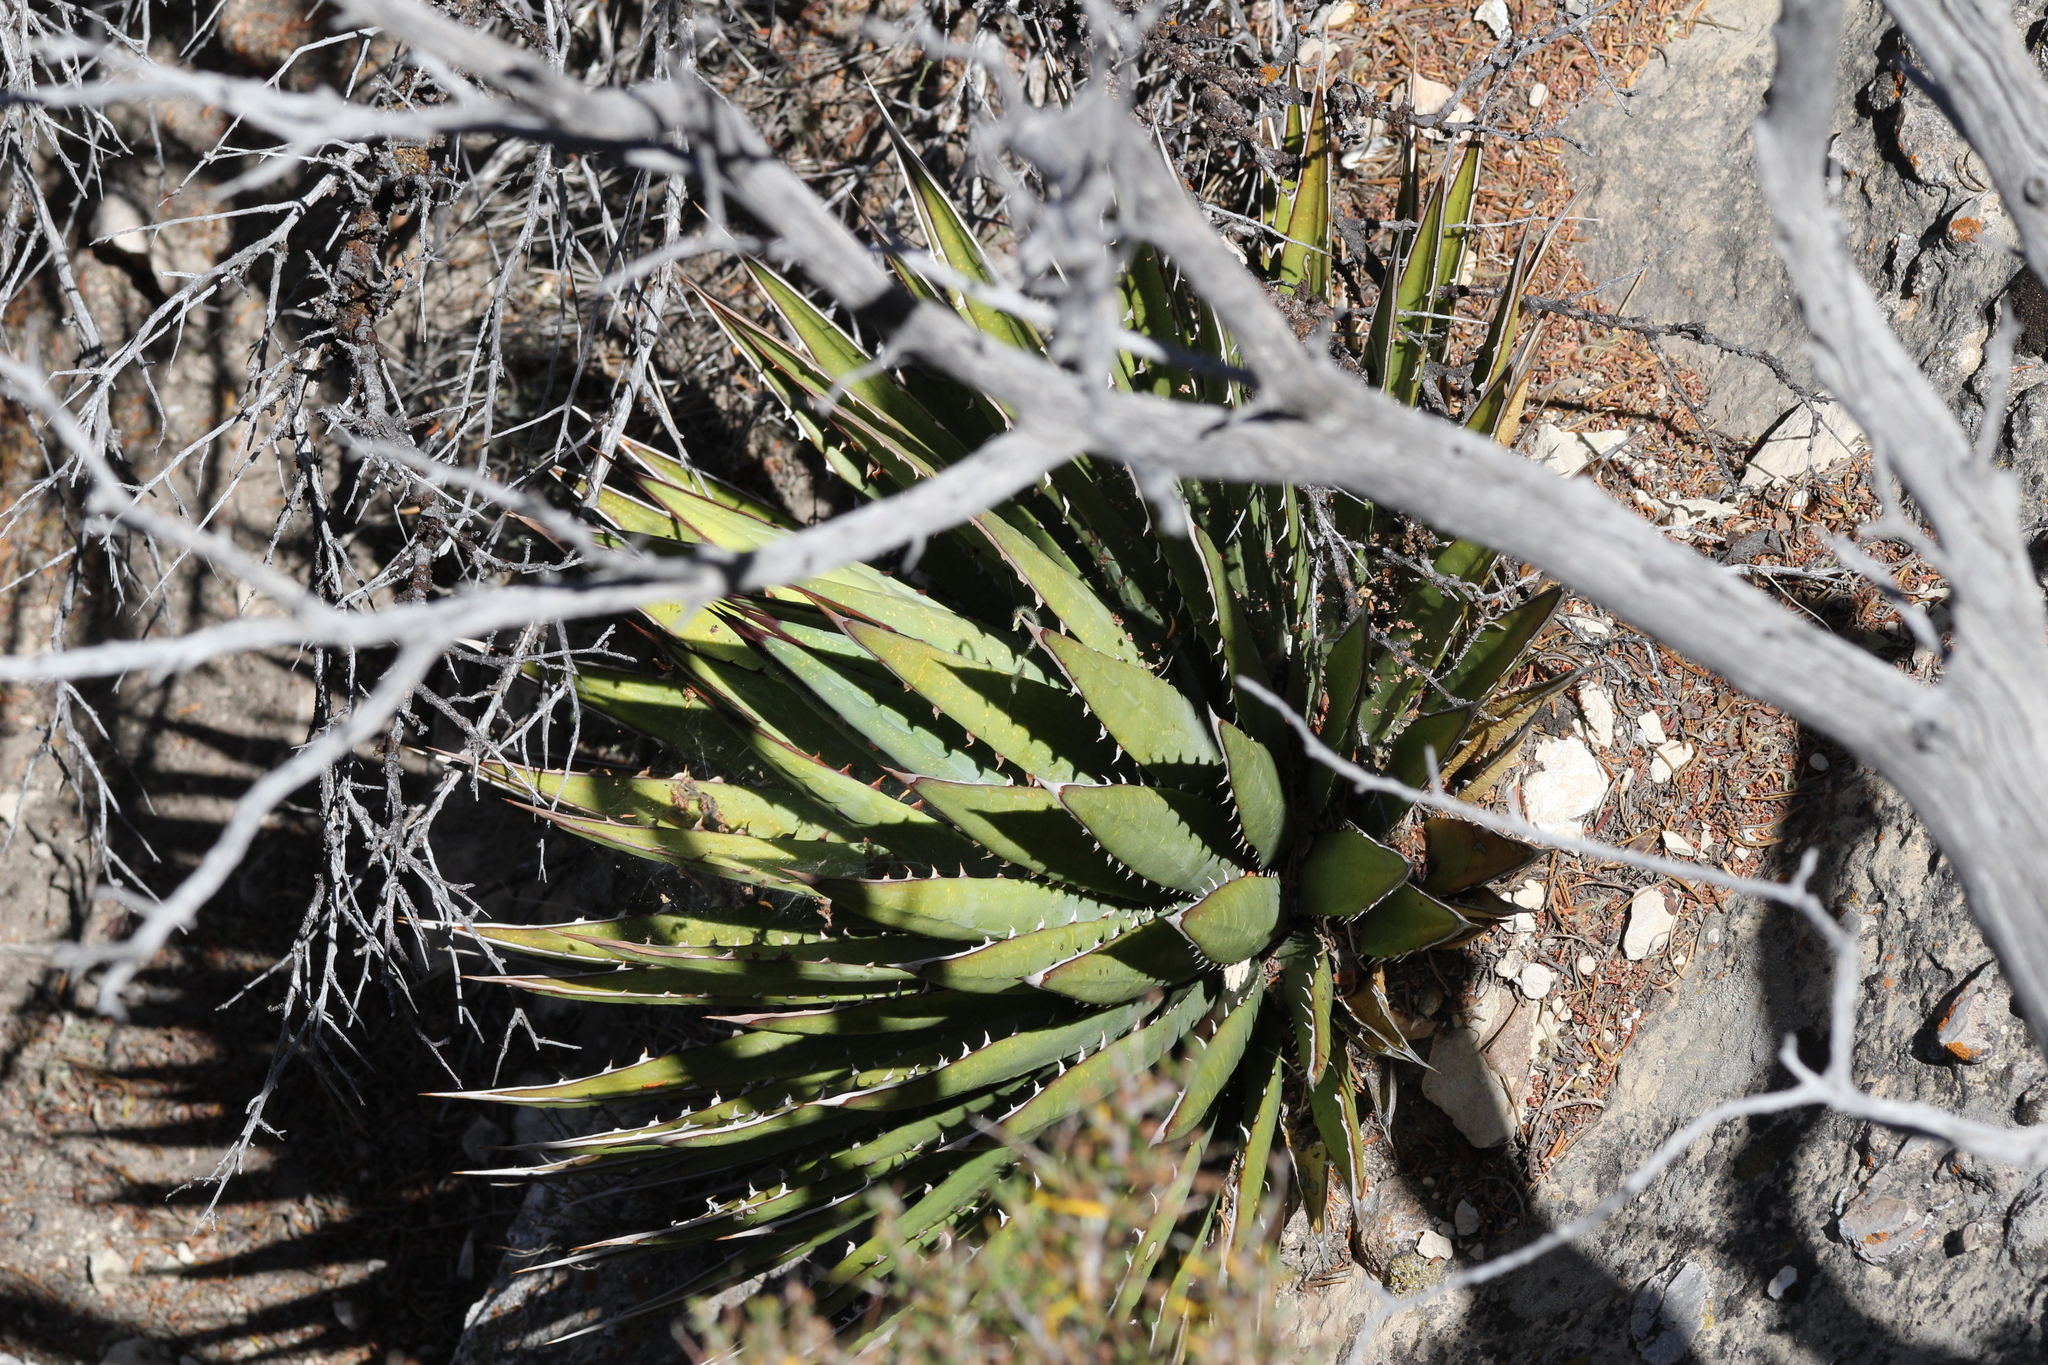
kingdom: Plantae
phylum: Tracheophyta
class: Liliopsida
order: Asparagales
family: Asparagaceae
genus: Agave
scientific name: Agave utahensis
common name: Utah agave
